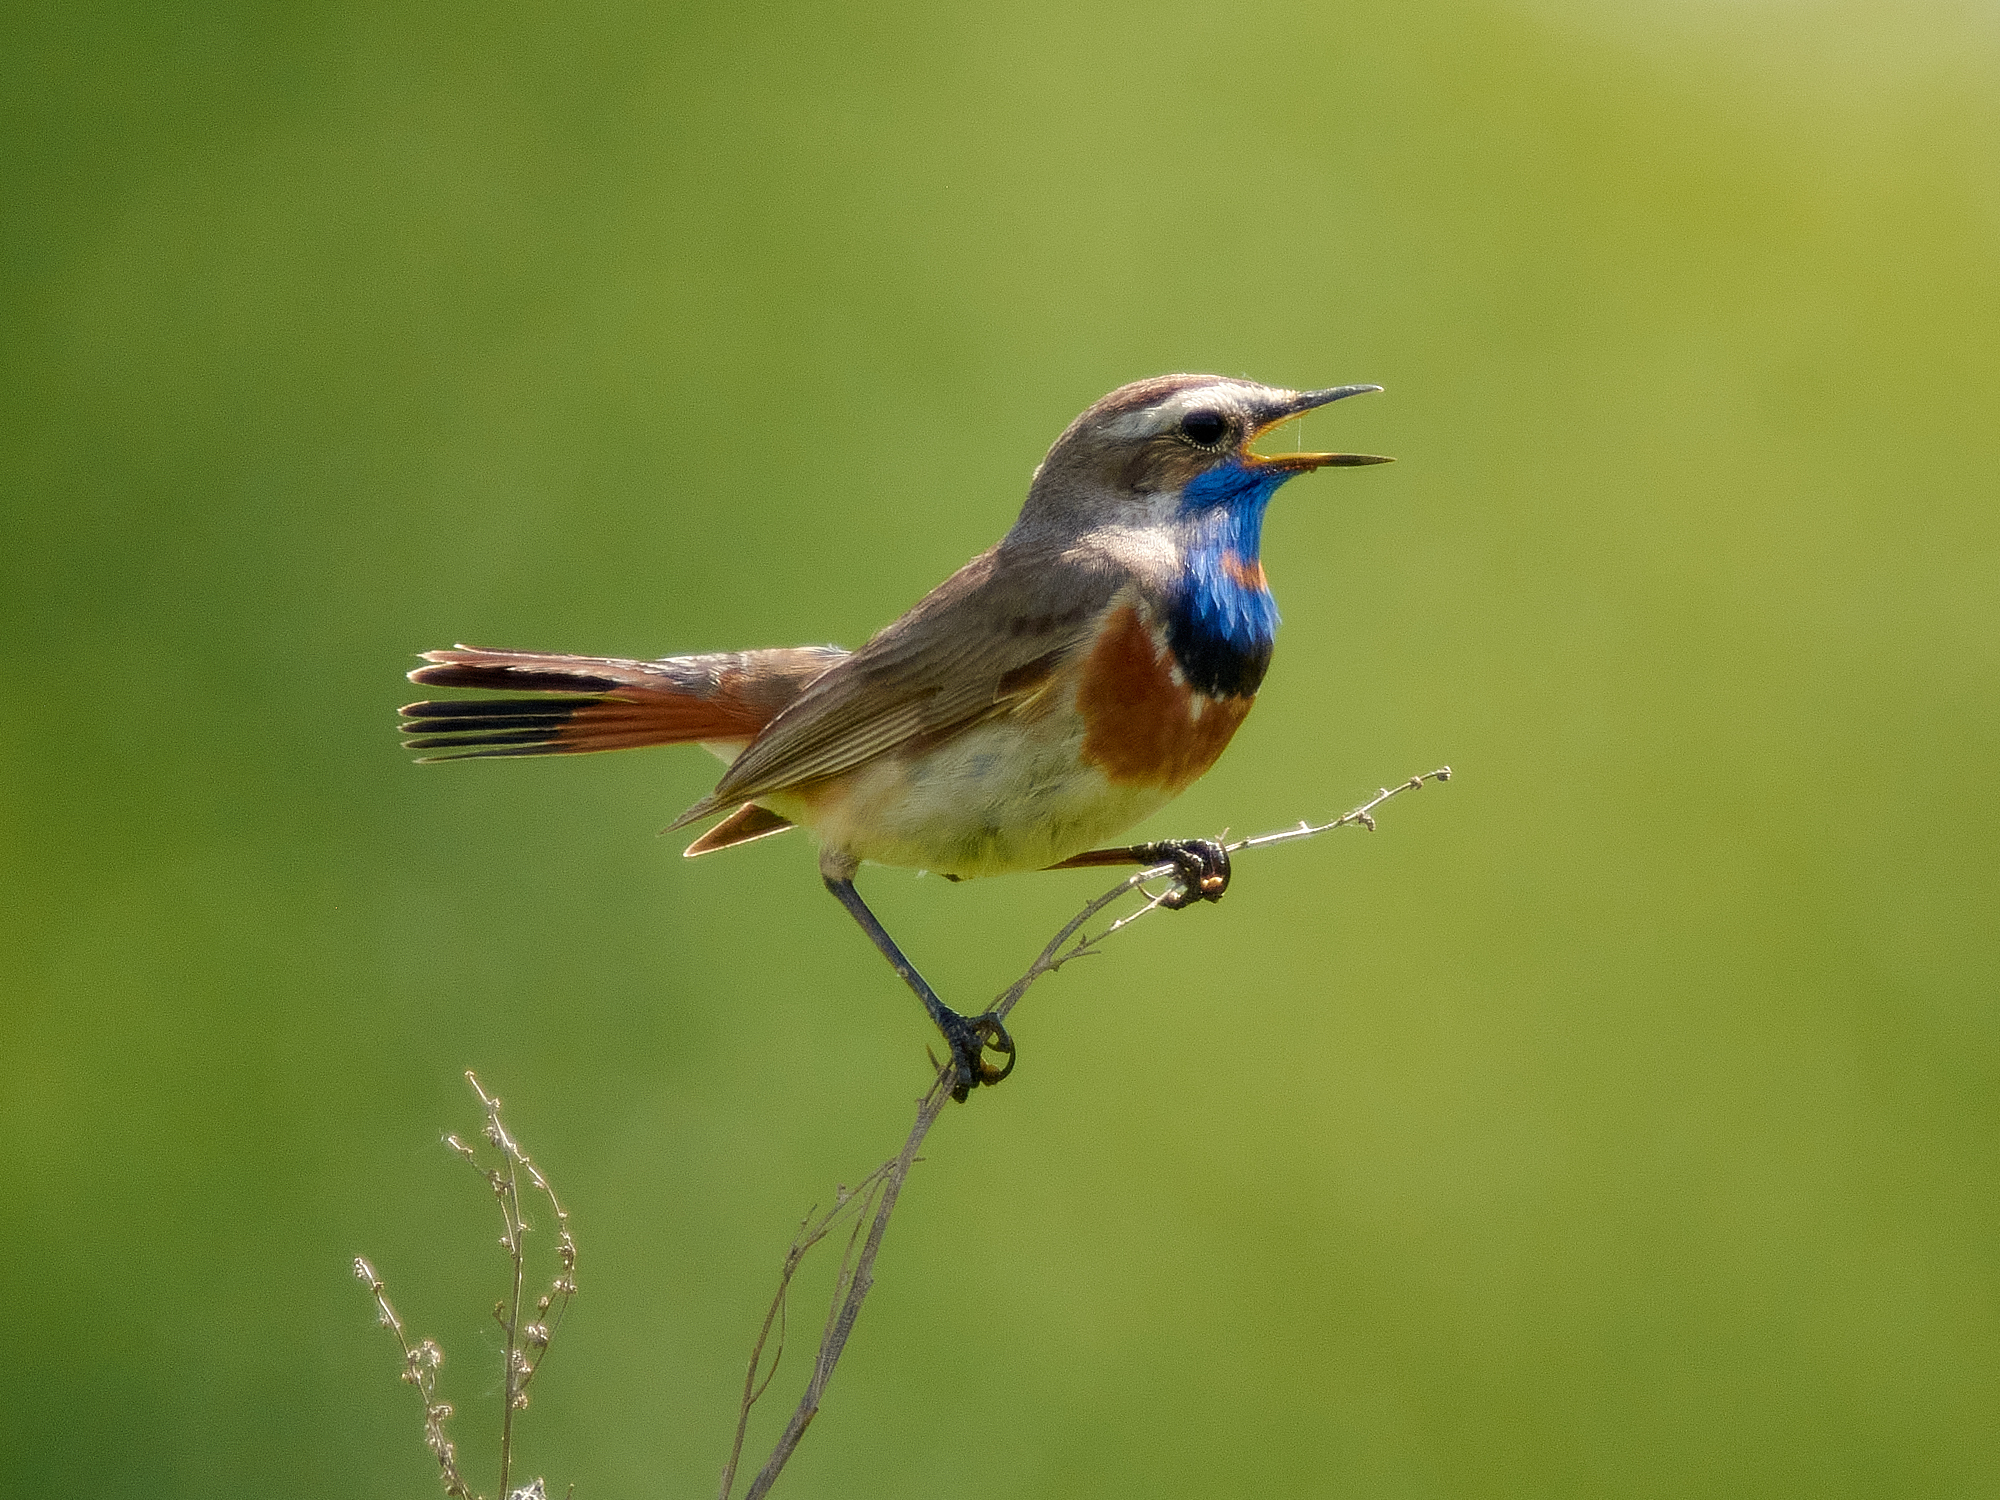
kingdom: Animalia
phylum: Chordata
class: Aves
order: Passeriformes
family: Muscicapidae
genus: Luscinia
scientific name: Luscinia svecica
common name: Bluethroat
